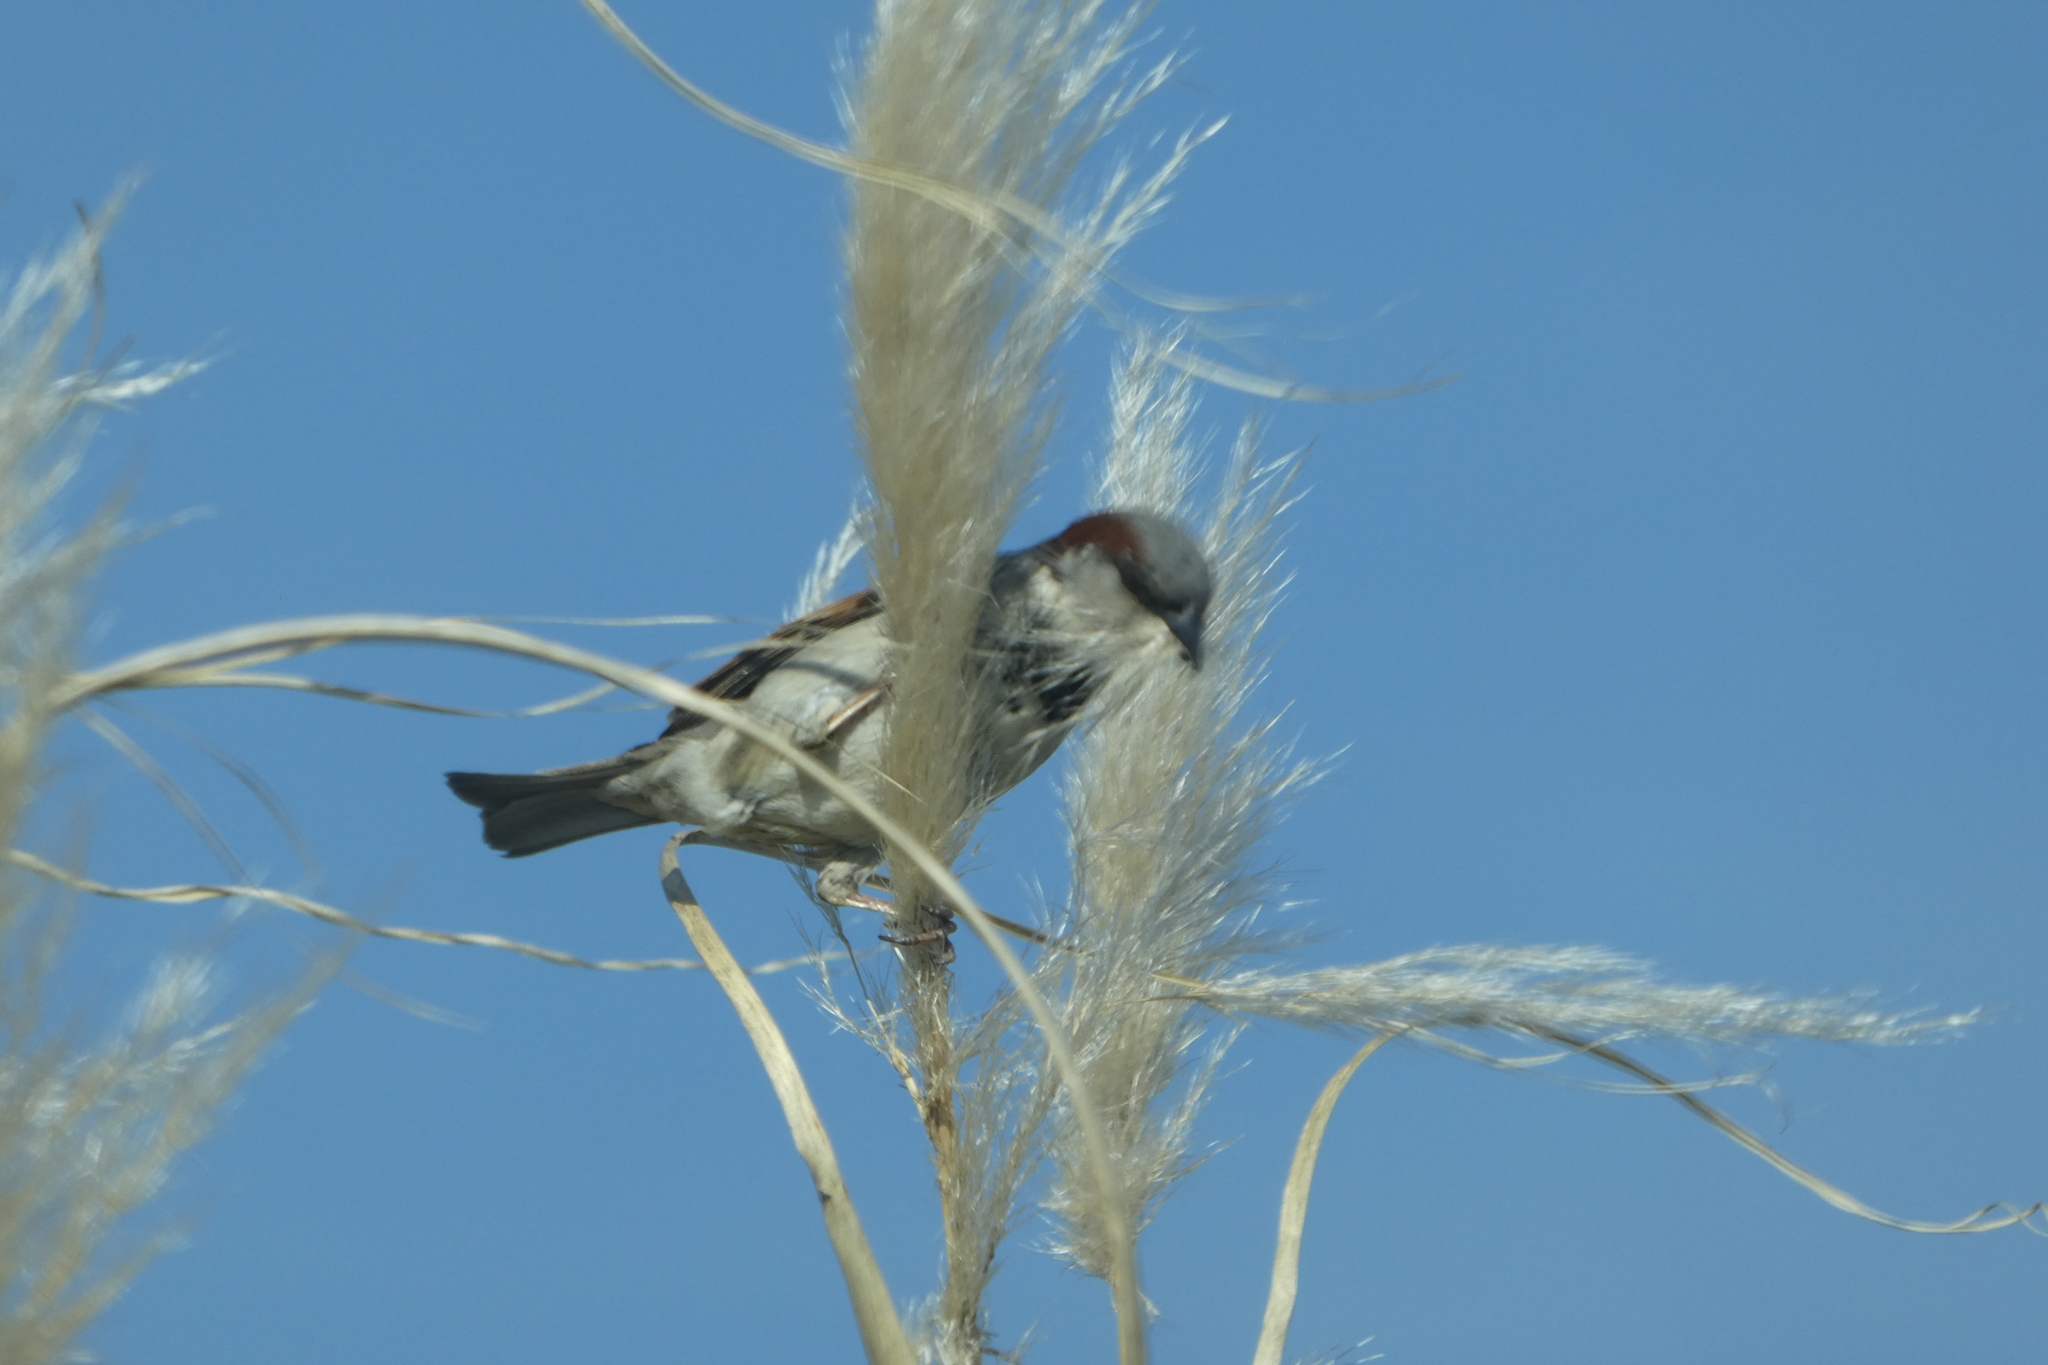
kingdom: Animalia
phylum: Chordata
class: Aves
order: Passeriformes
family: Passeridae
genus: Passer
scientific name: Passer domesticus
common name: House sparrow
